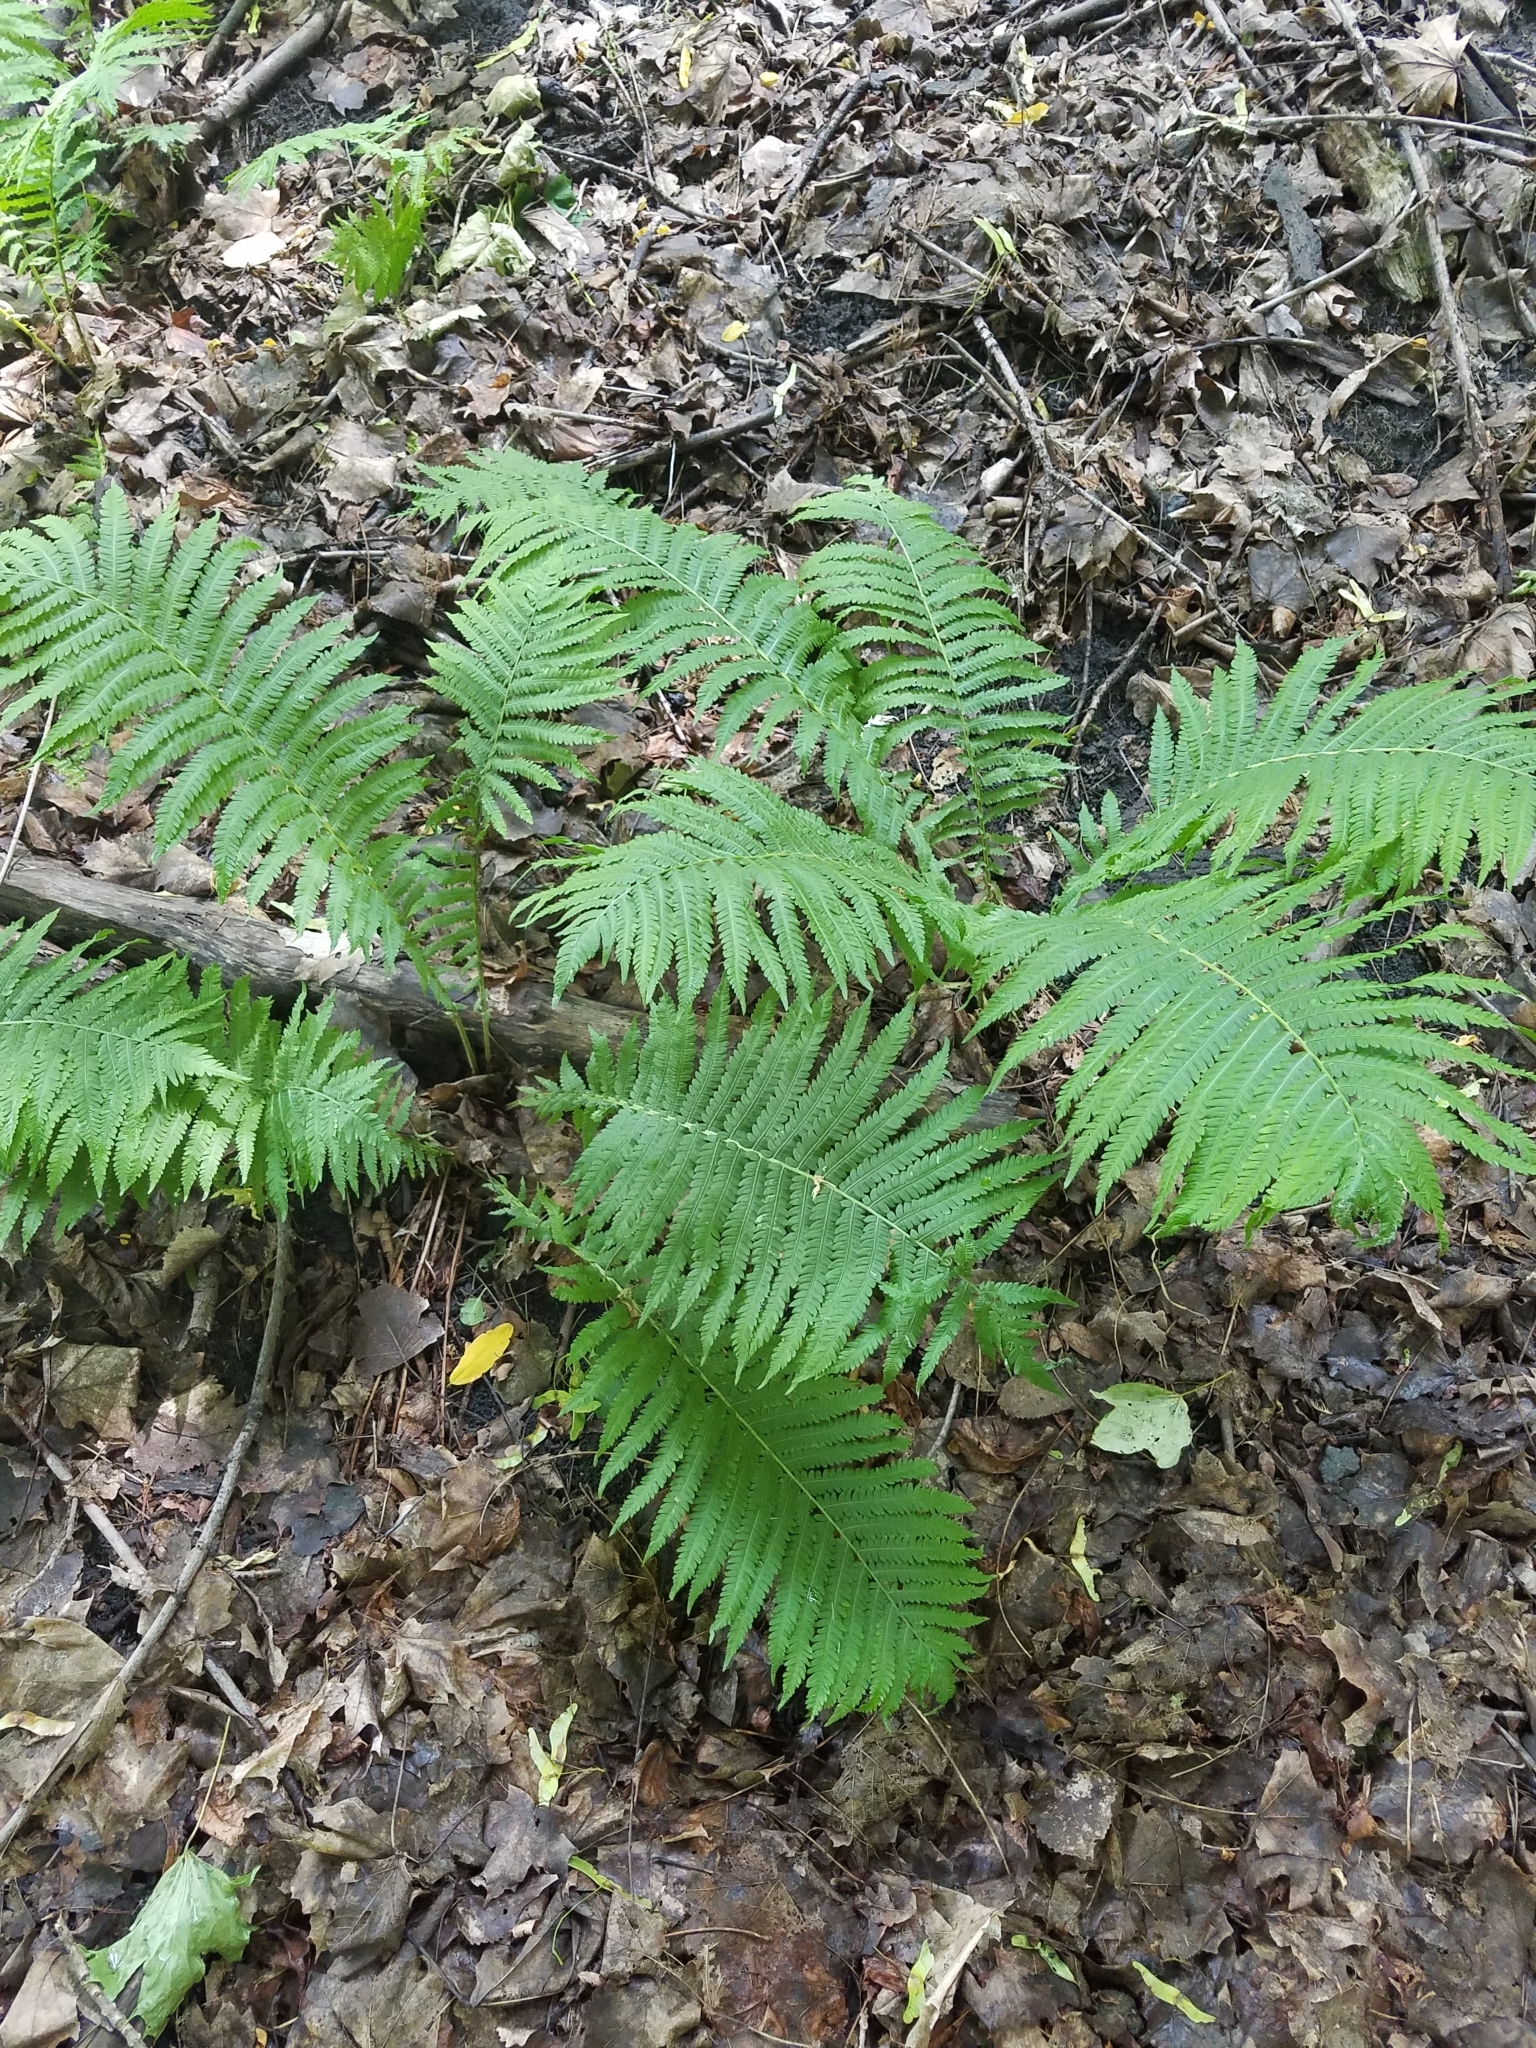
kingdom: Plantae
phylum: Tracheophyta
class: Polypodiopsida
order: Polypodiales
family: Onocleaceae
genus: Matteuccia
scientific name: Matteuccia struthiopteris
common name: Ostrich fern
